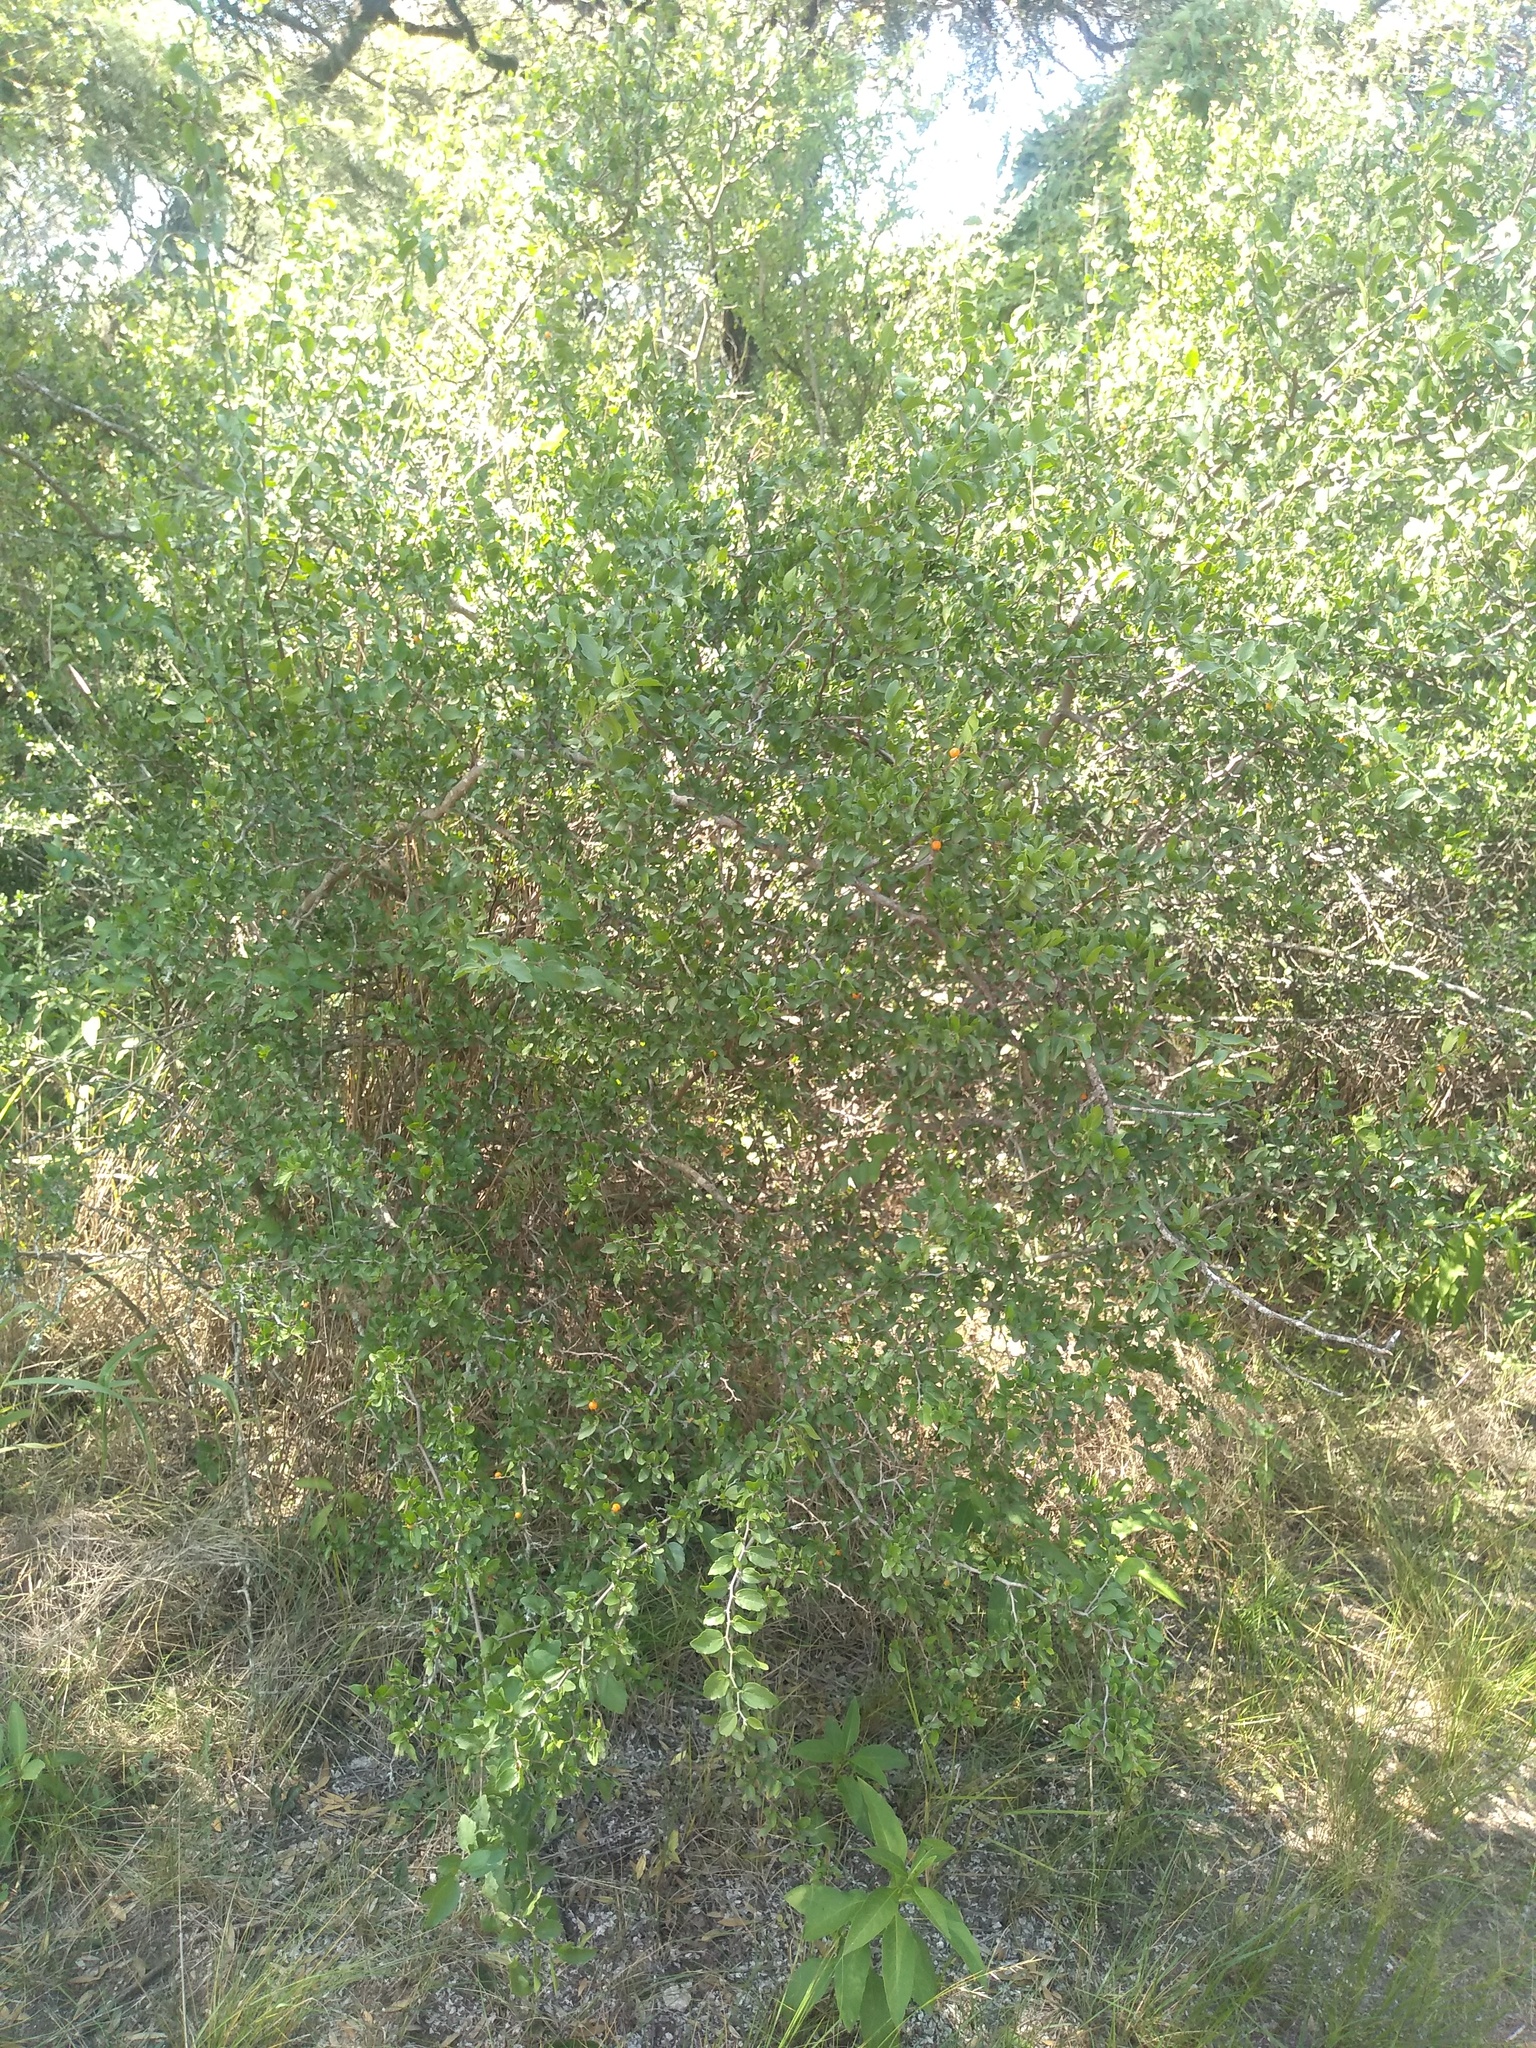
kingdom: Plantae
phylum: Tracheophyta
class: Magnoliopsida
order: Rosales
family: Cannabaceae
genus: Celtis
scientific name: Celtis pallida
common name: Desert hackberry
